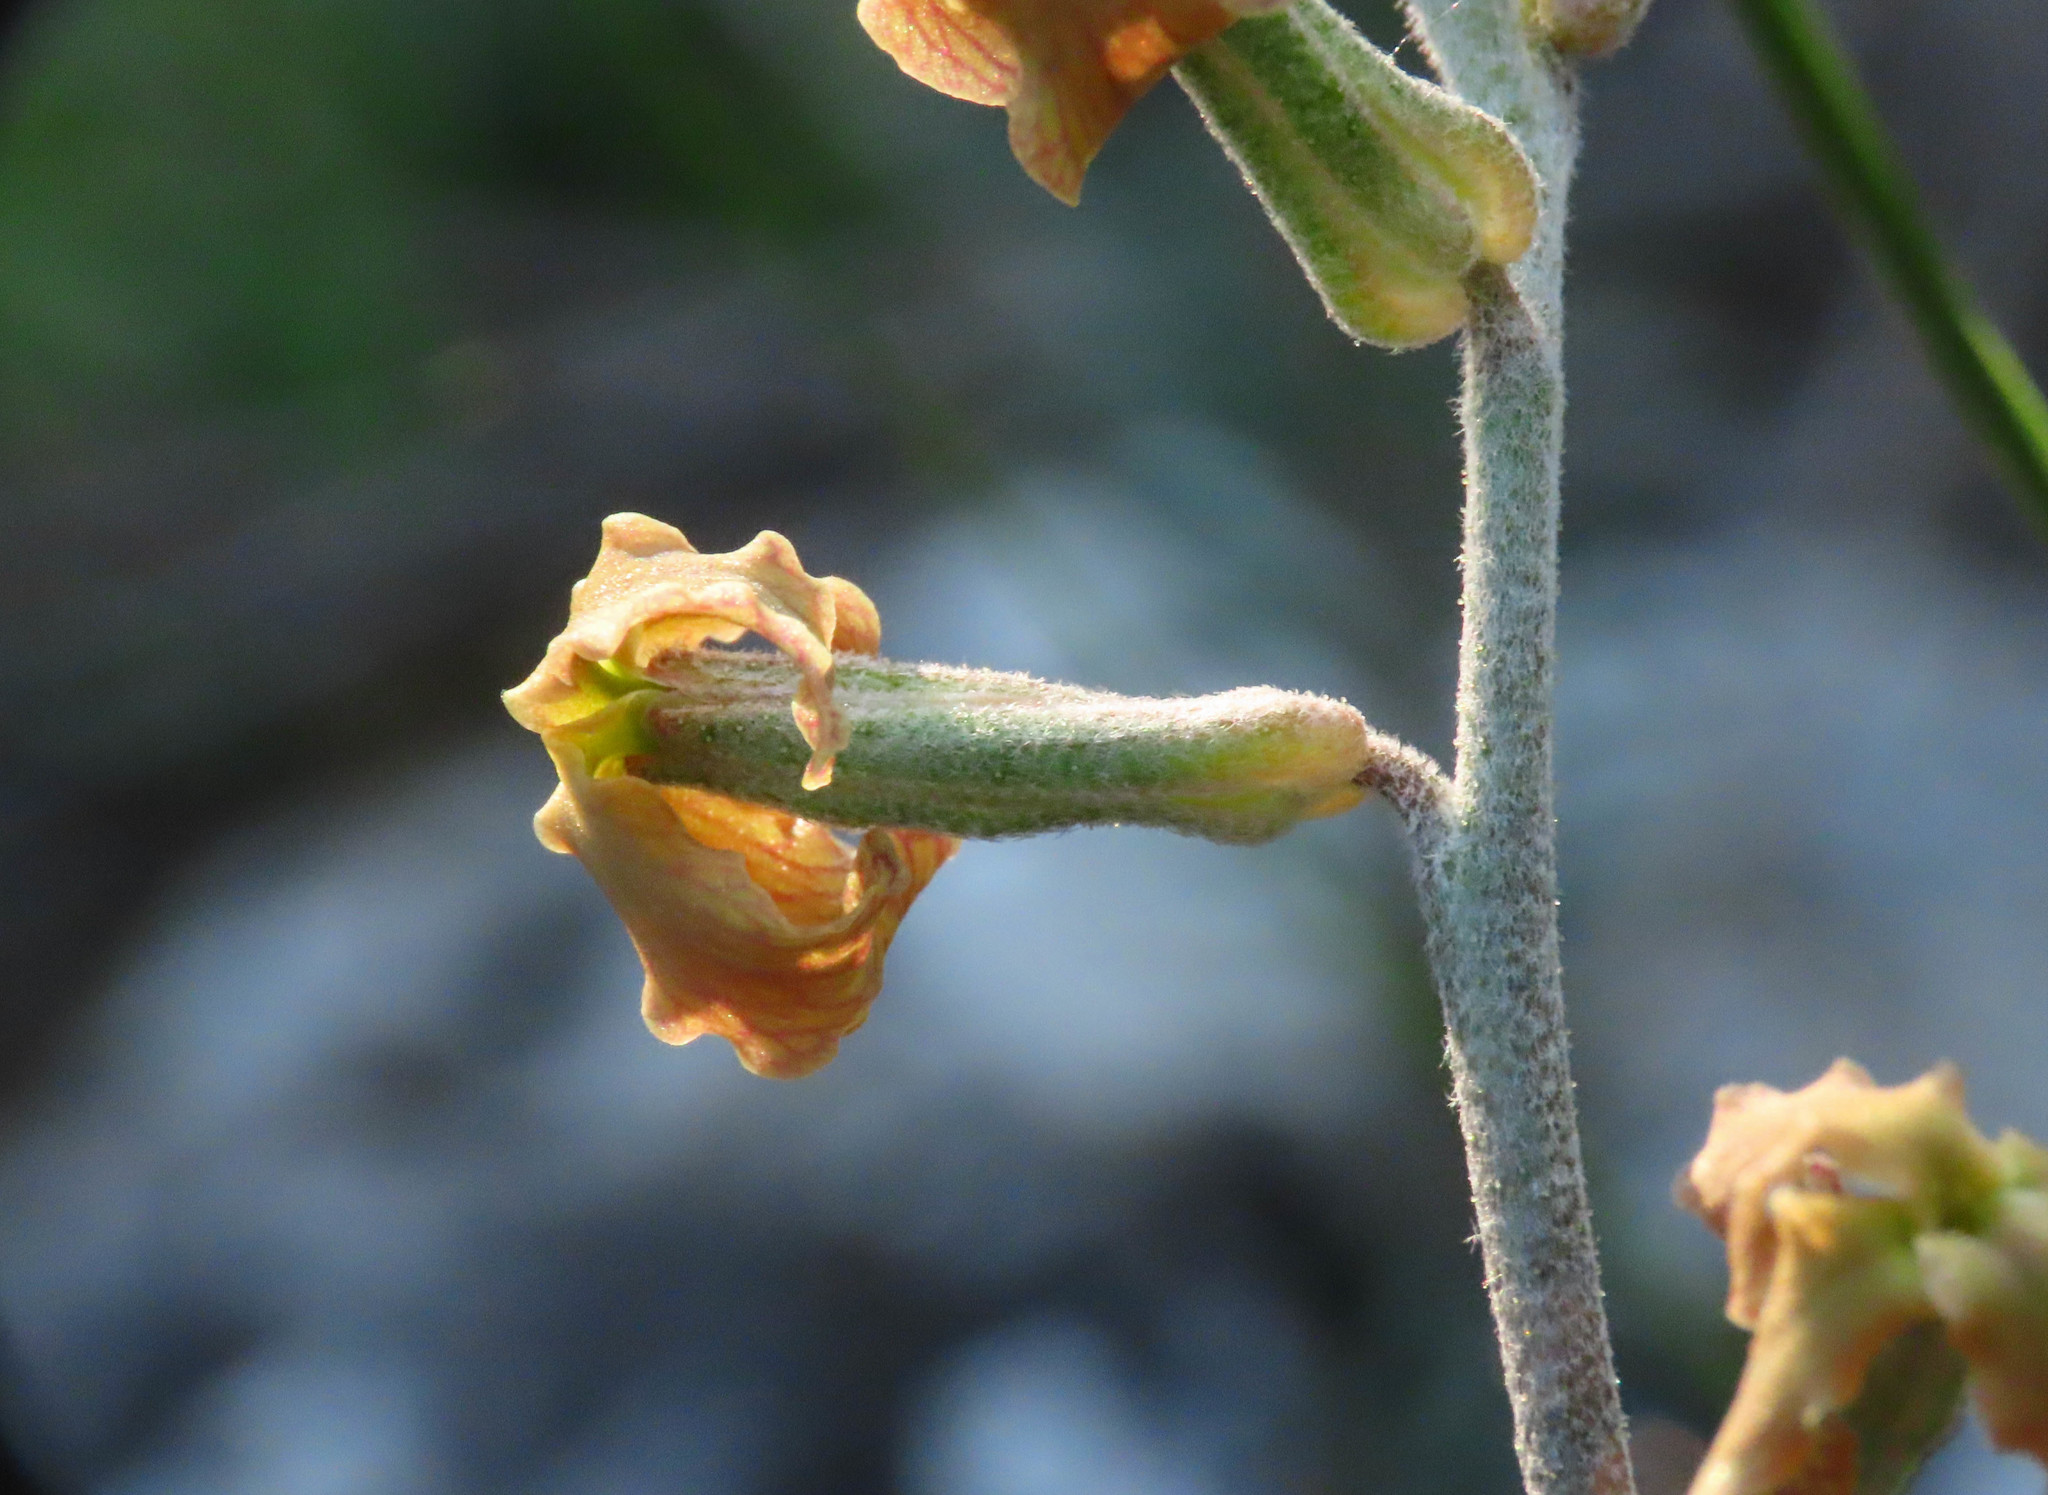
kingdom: Plantae
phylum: Tracheophyta
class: Magnoliopsida
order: Brassicales
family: Brassicaceae
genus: Matthiola
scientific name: Matthiola fruticulosa
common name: Sad stock
